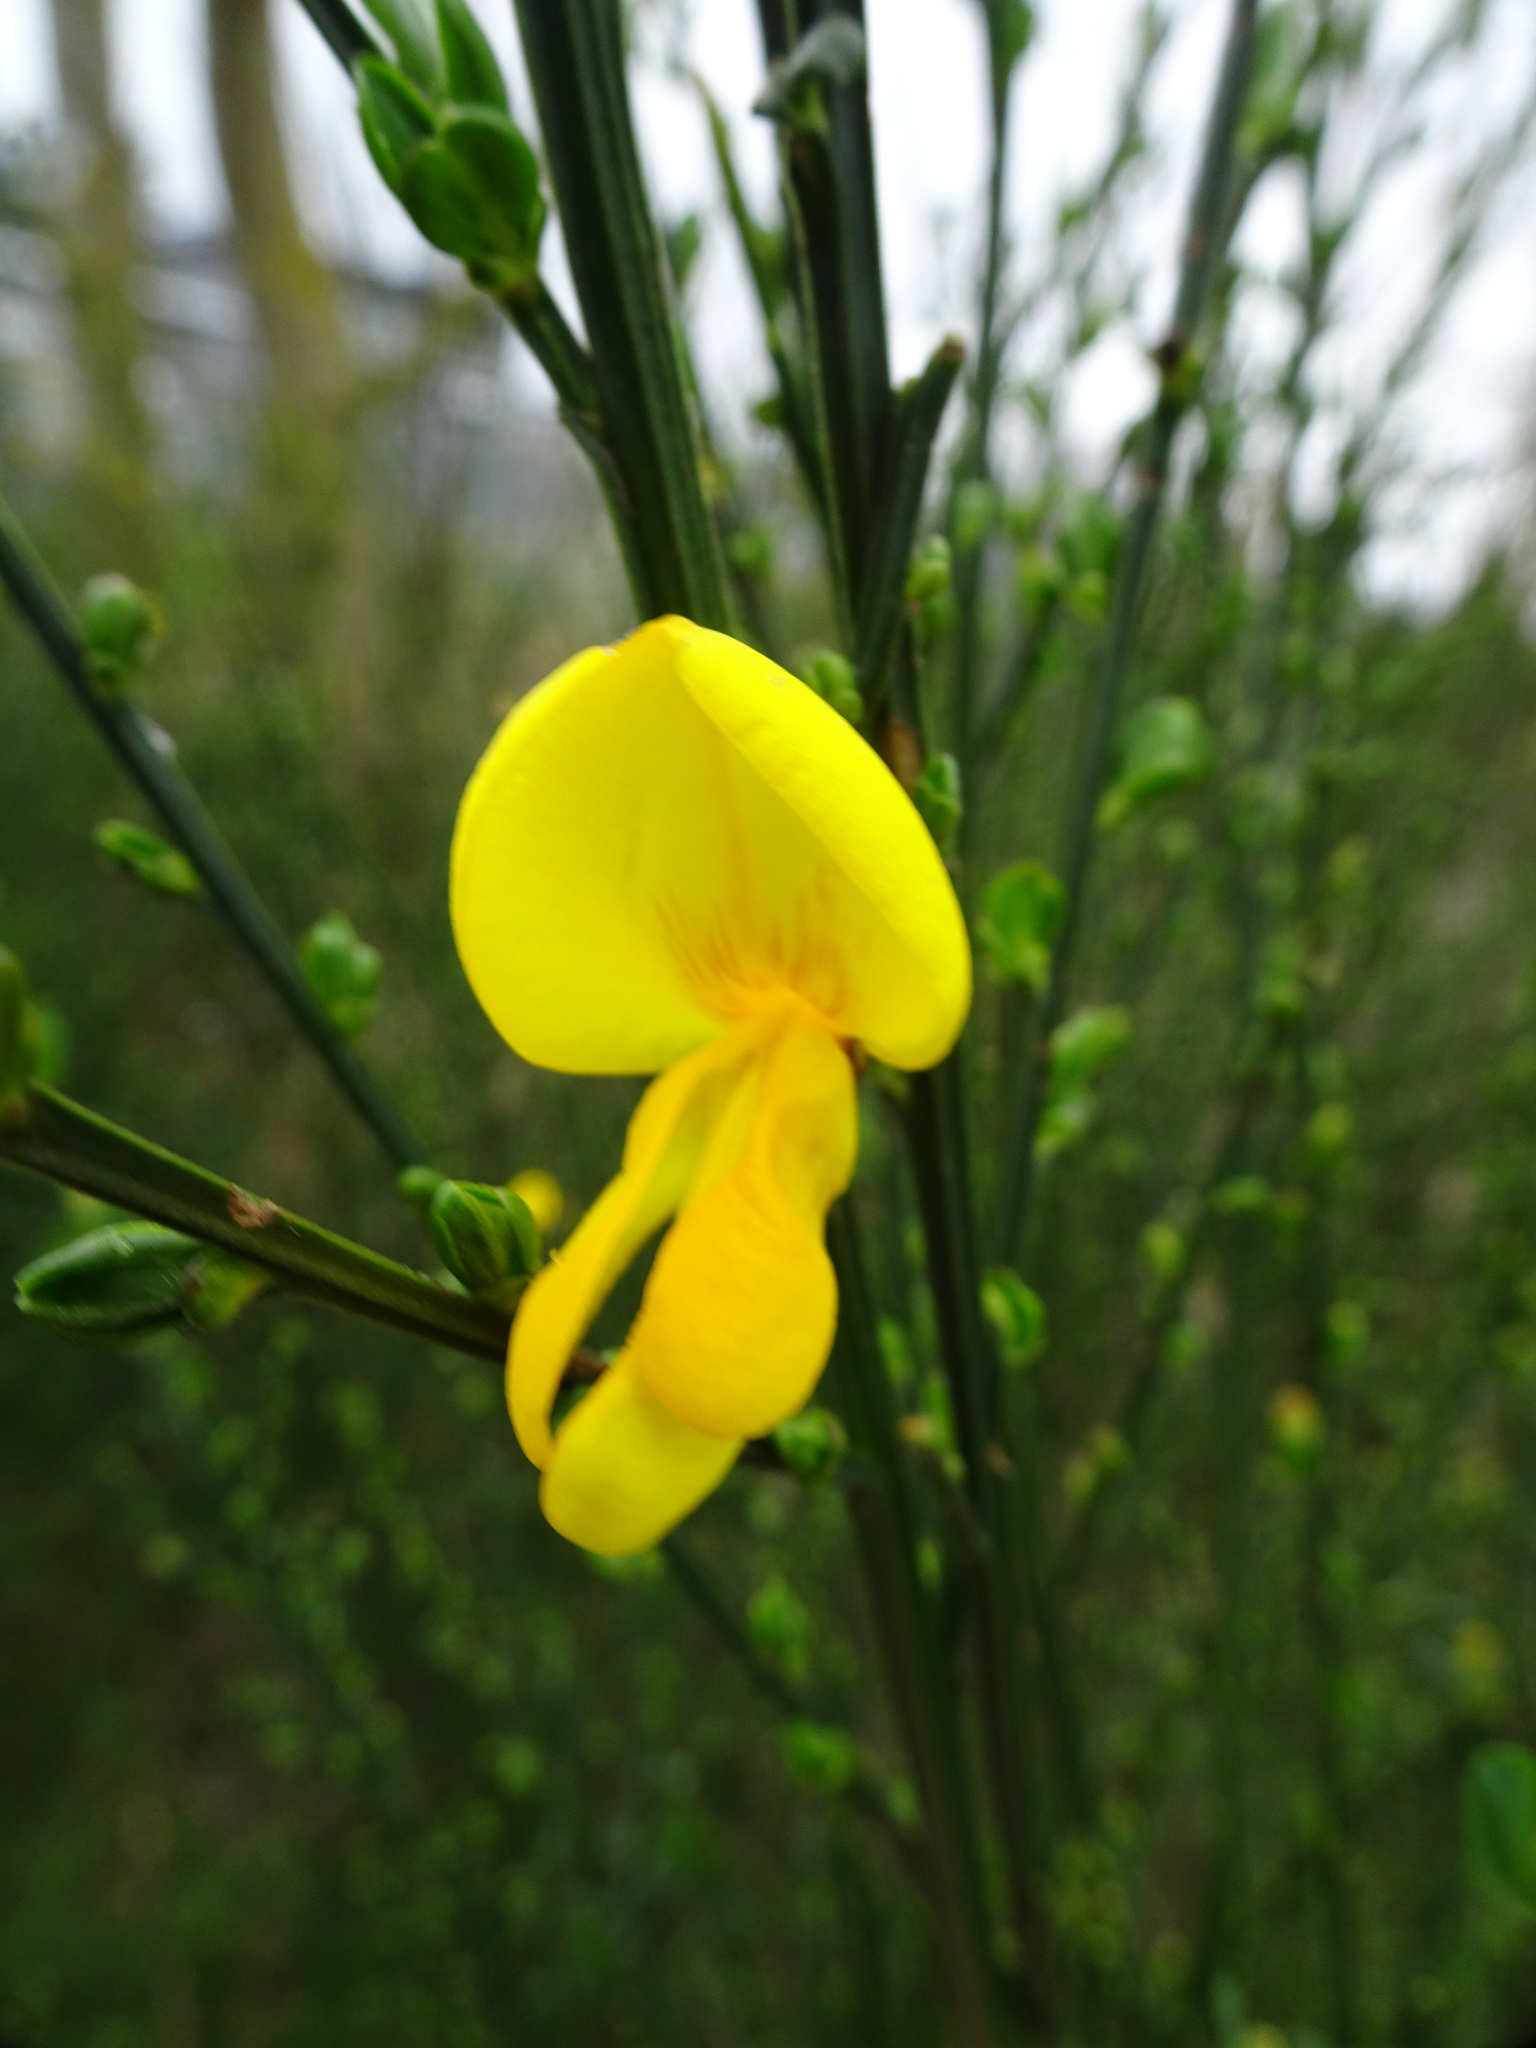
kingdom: Plantae
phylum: Tracheophyta
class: Magnoliopsida
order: Fabales
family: Fabaceae
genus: Cytisus
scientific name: Cytisus scoparius
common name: Scotch broom
